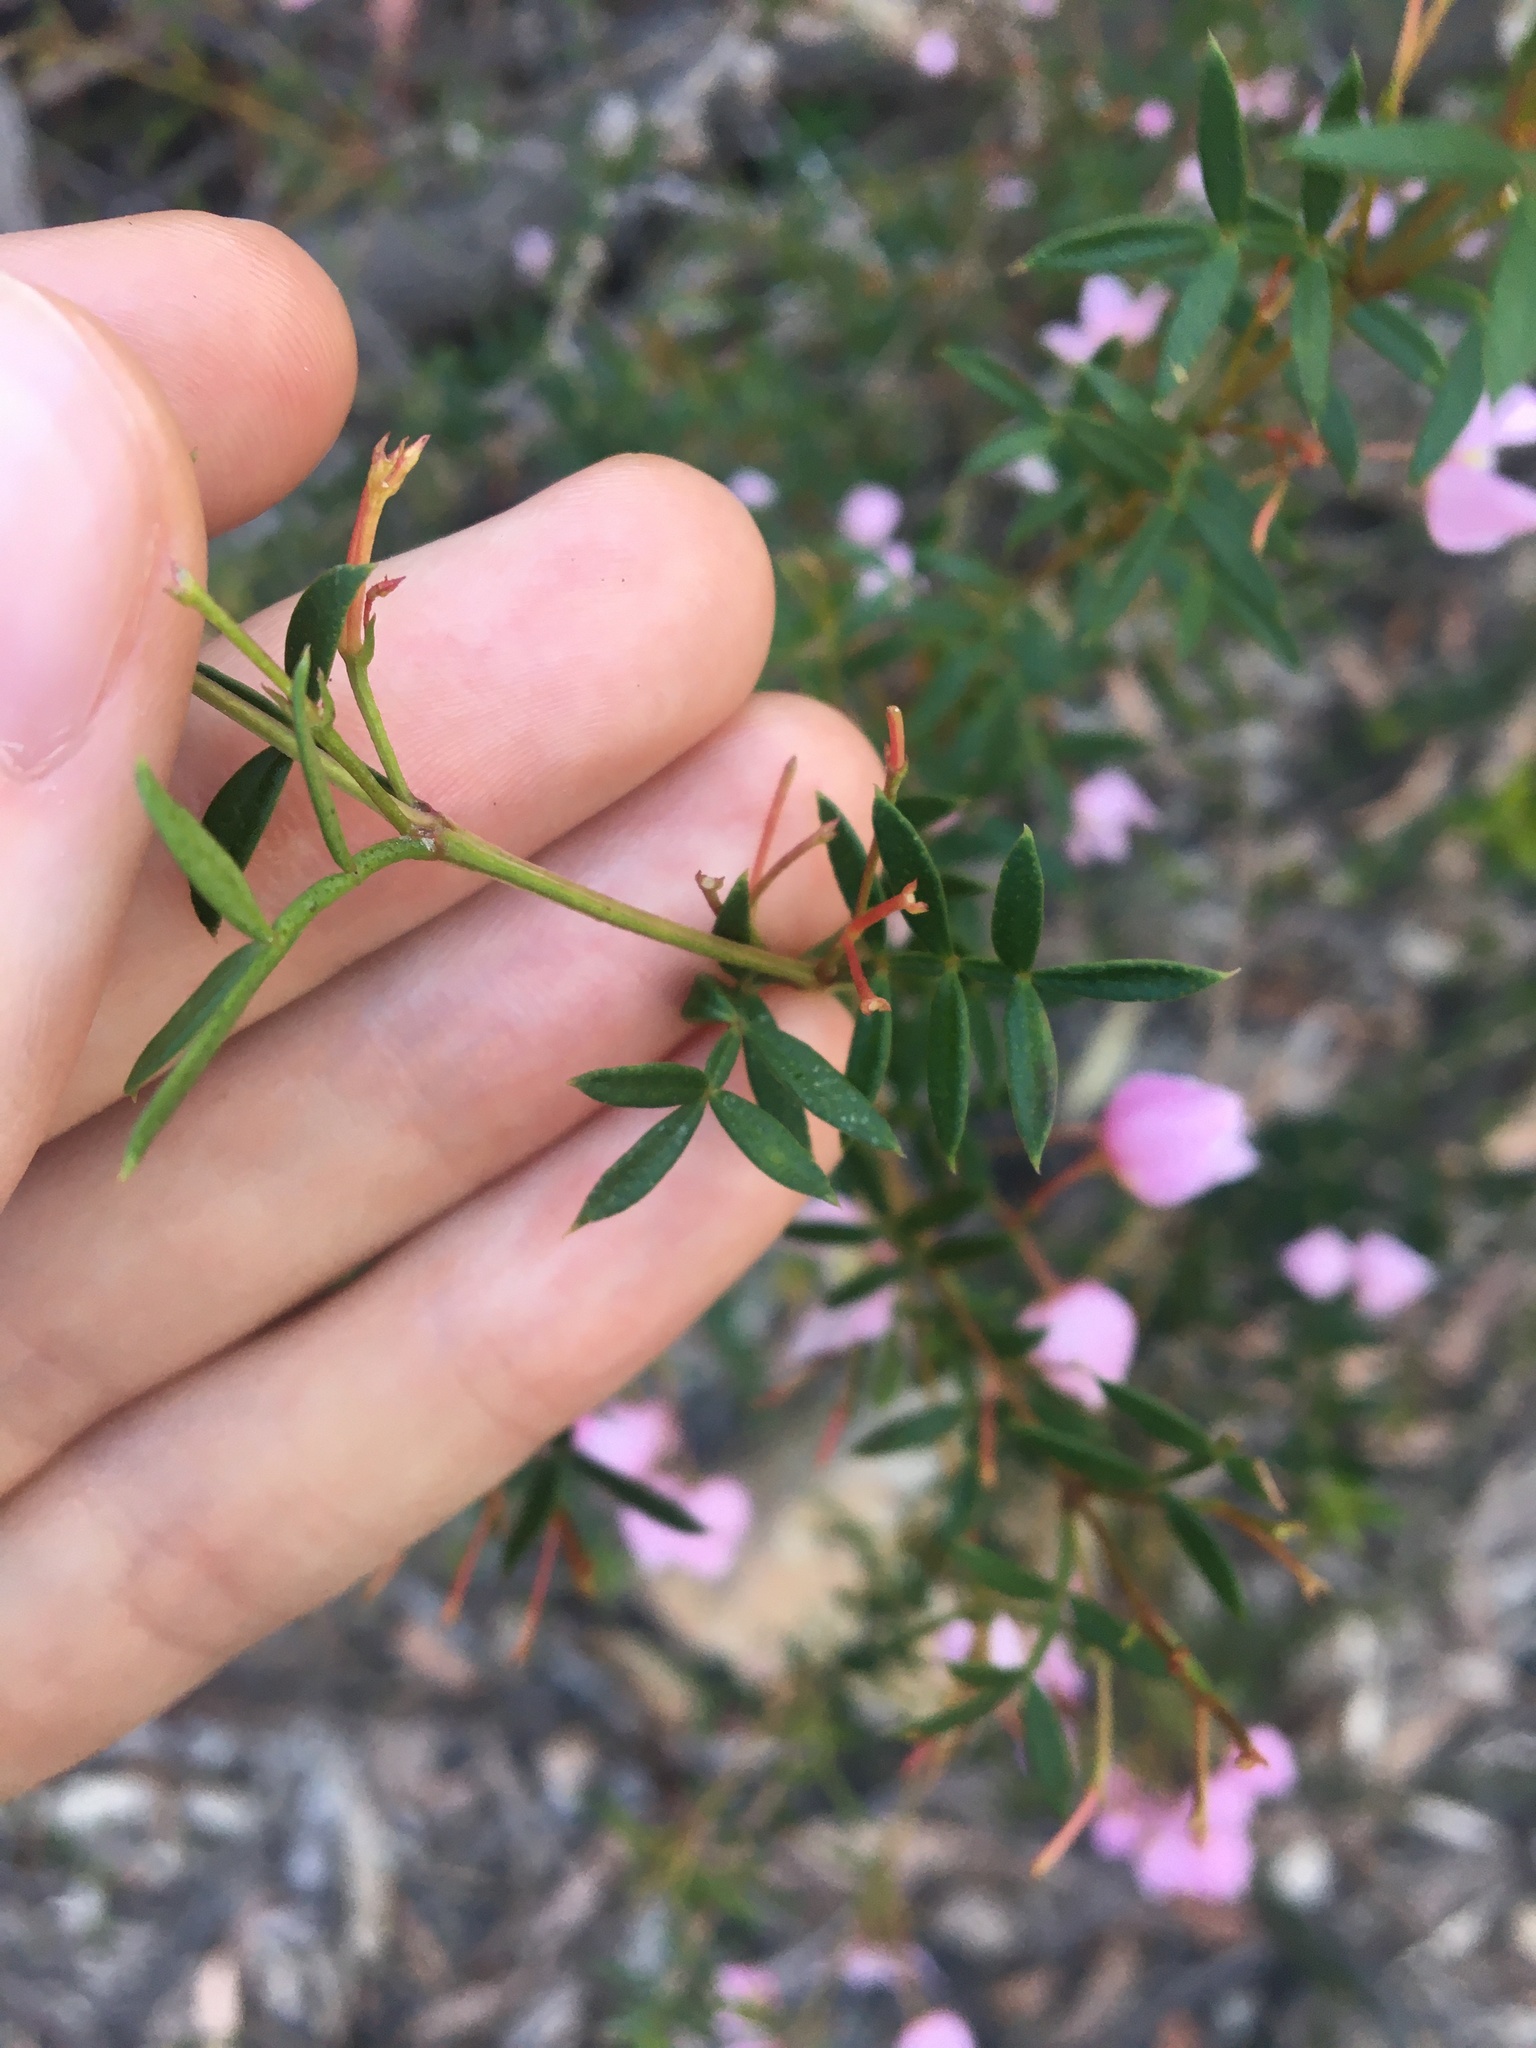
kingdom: Plantae
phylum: Tracheophyta
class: Magnoliopsida
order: Sapindales
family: Rutaceae
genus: Boronia
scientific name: Boronia pinnata
